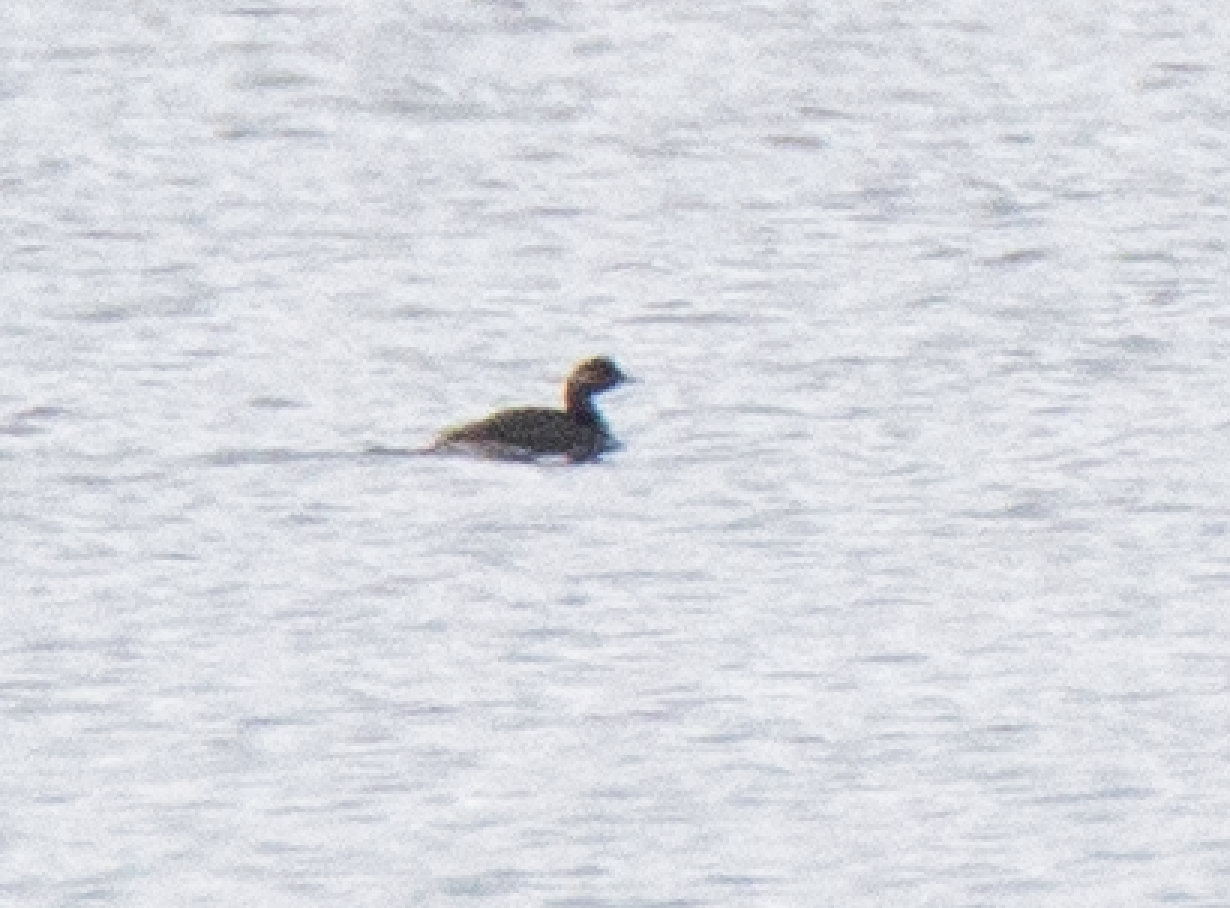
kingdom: Animalia
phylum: Chordata
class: Aves
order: Podicipediformes
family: Podicipedidae
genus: Podiceps
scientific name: Podiceps nigricollis
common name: Black-necked grebe
